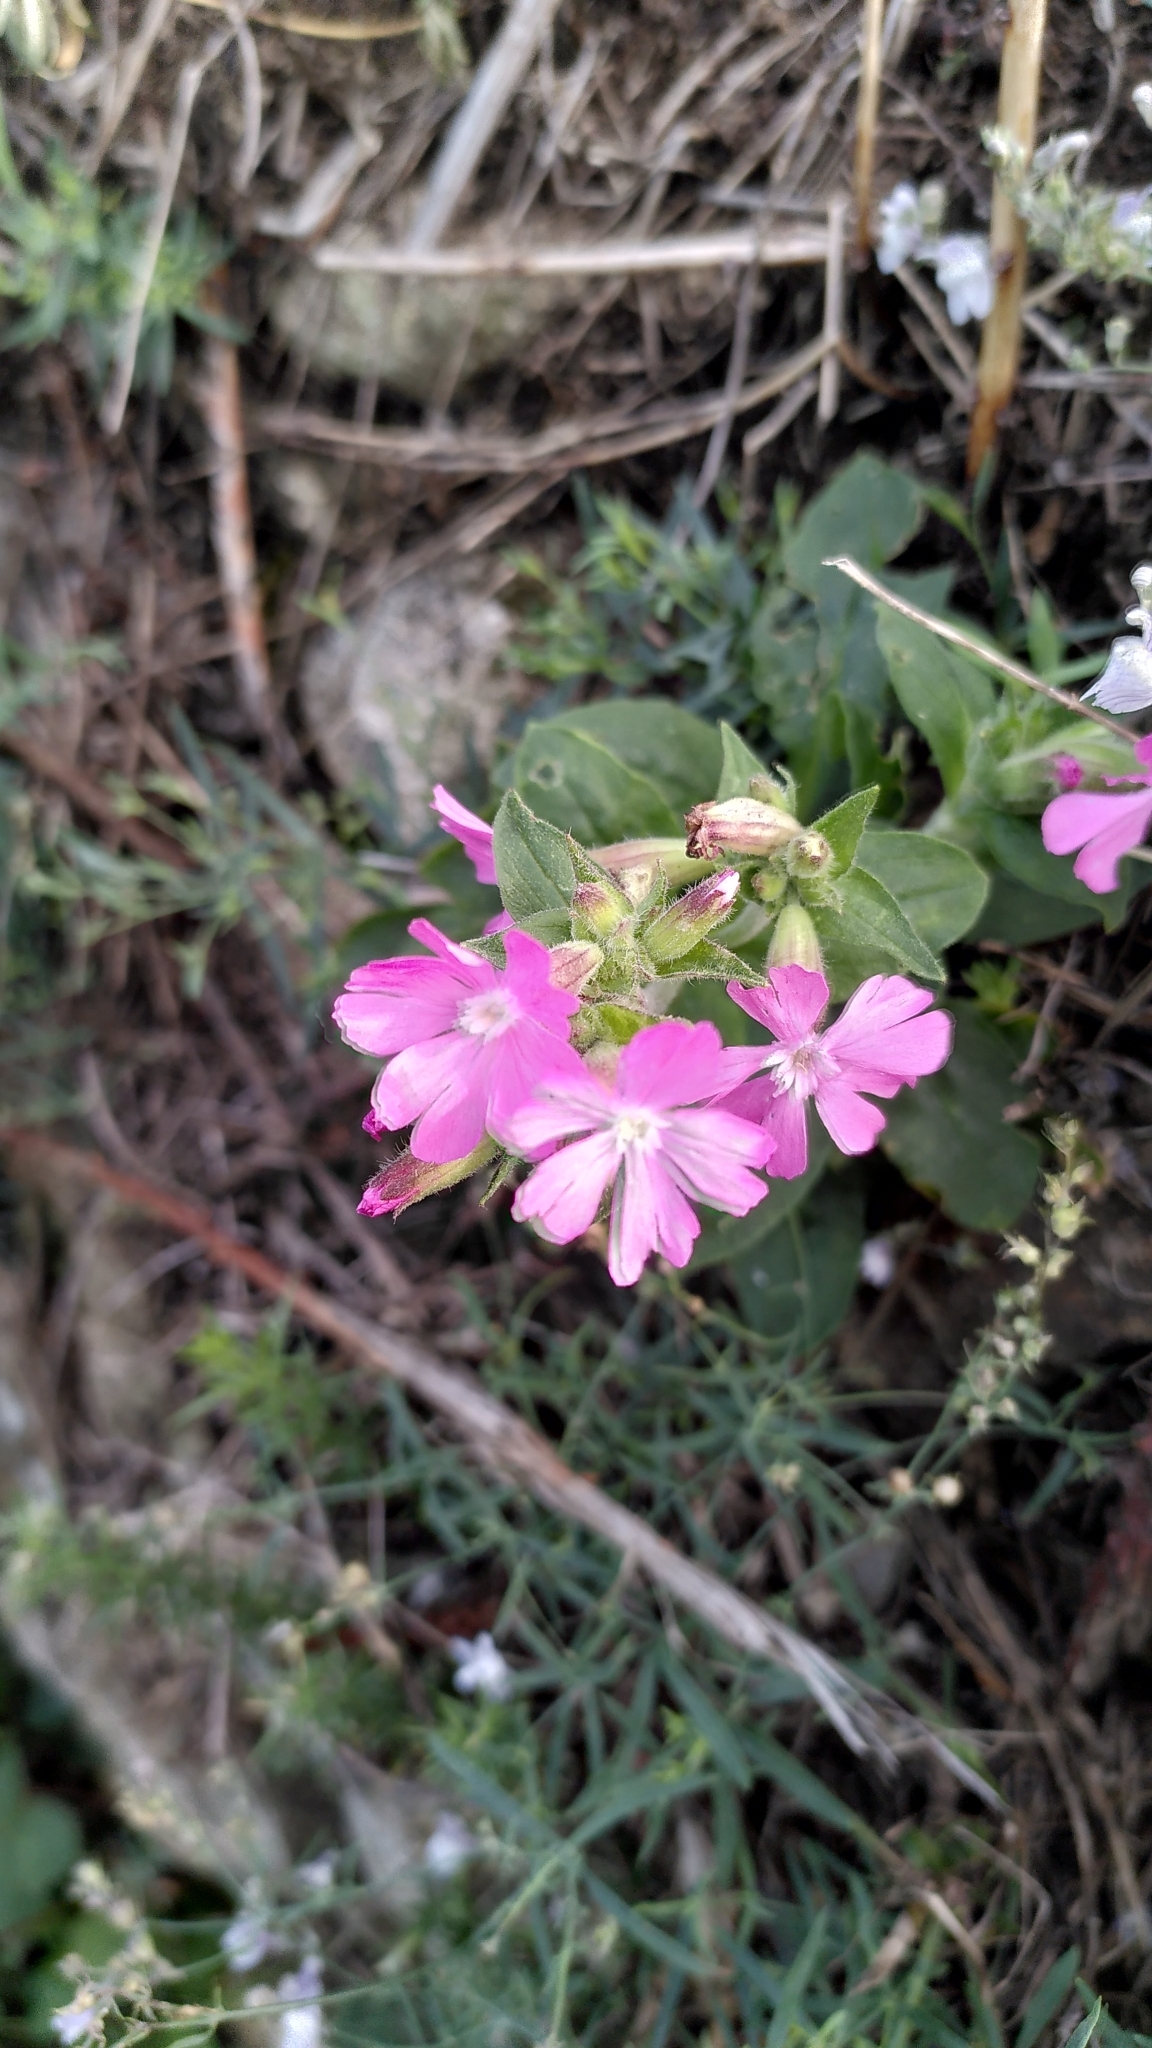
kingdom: Plantae
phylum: Tracheophyta
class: Magnoliopsida
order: Caryophyllales
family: Caryophyllaceae
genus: Silene
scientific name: Silene dioica
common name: Red campion
